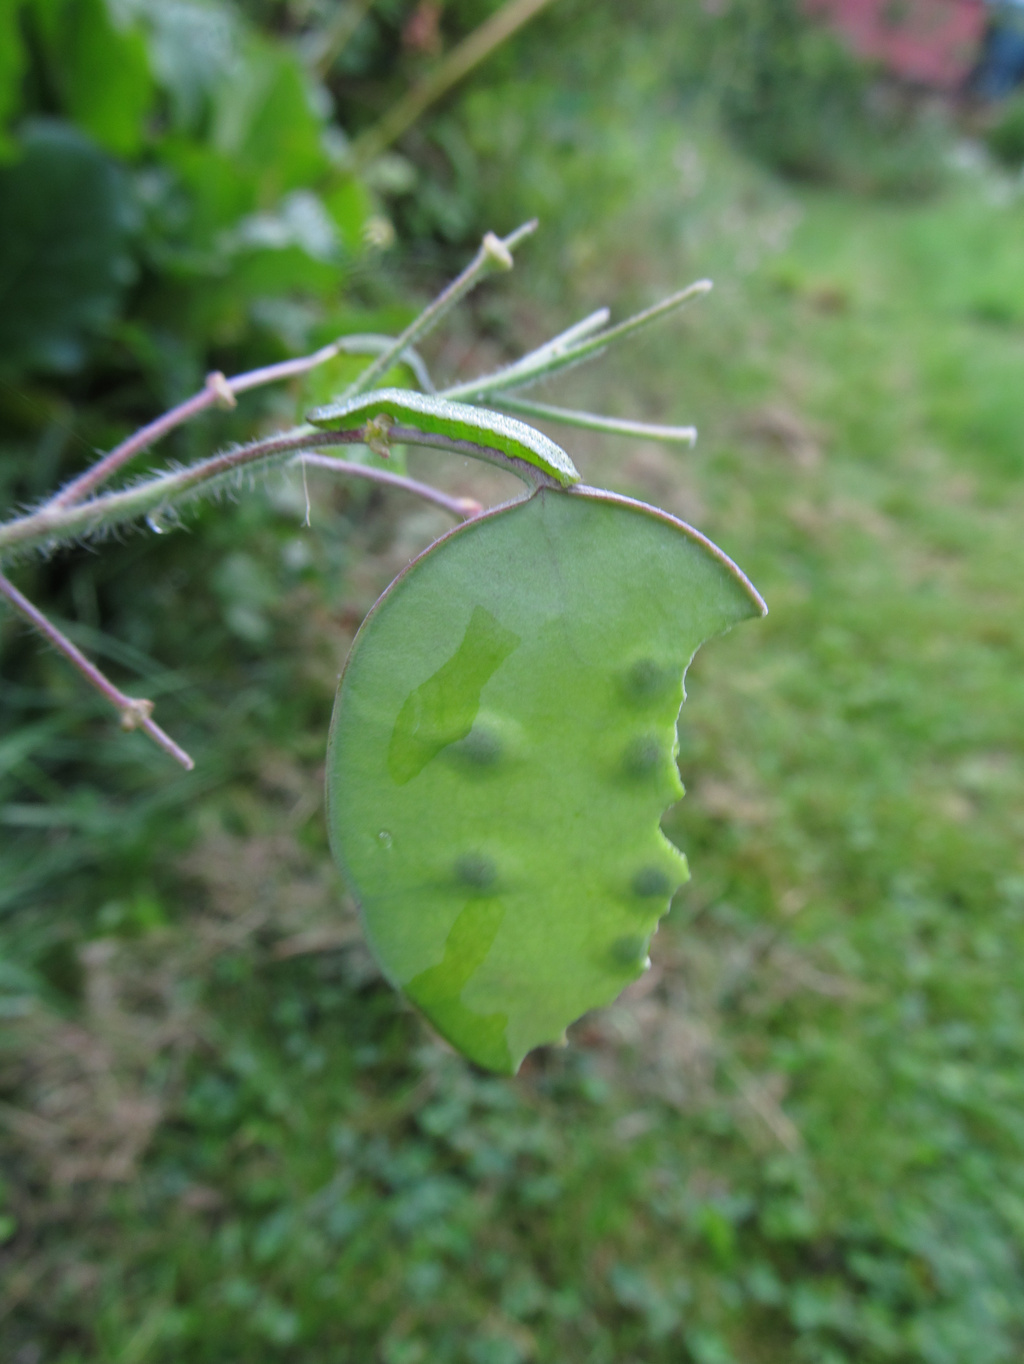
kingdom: Animalia
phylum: Arthropoda
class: Insecta
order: Lepidoptera
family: Pieridae
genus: Anthocharis
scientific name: Anthocharis cardamines
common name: Orange-tip
